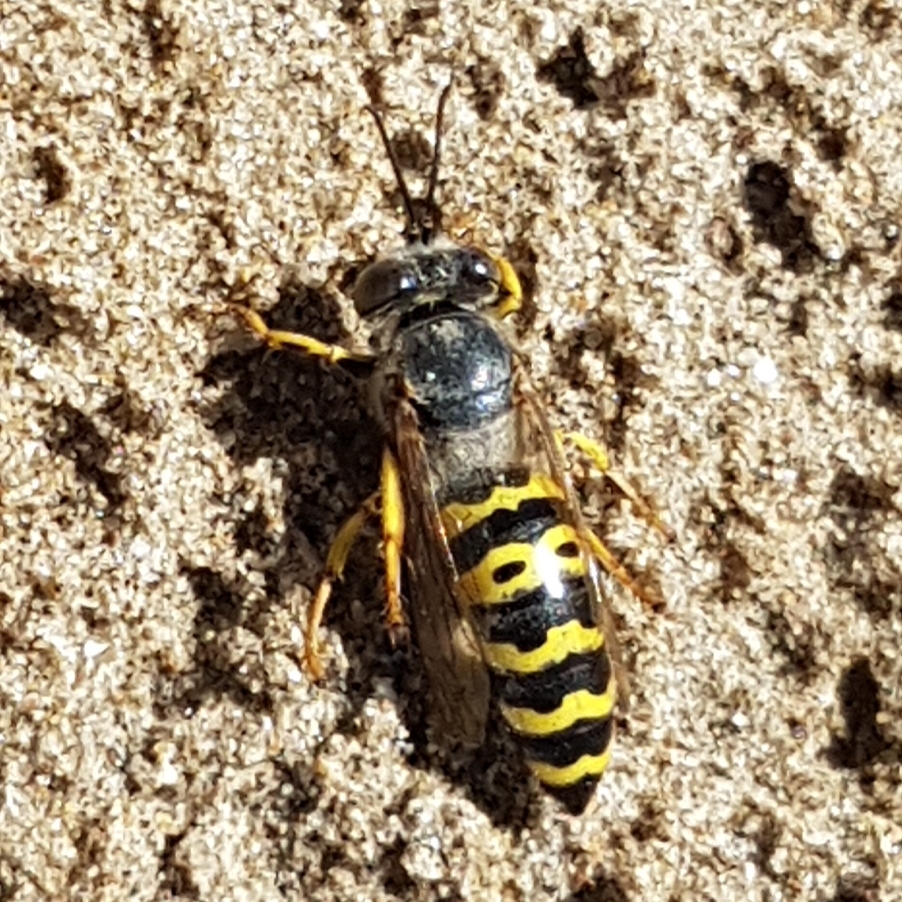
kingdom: Animalia
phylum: Arthropoda
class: Insecta
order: Hymenoptera
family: Crabronidae
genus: Bembix
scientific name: Bembix oculata
